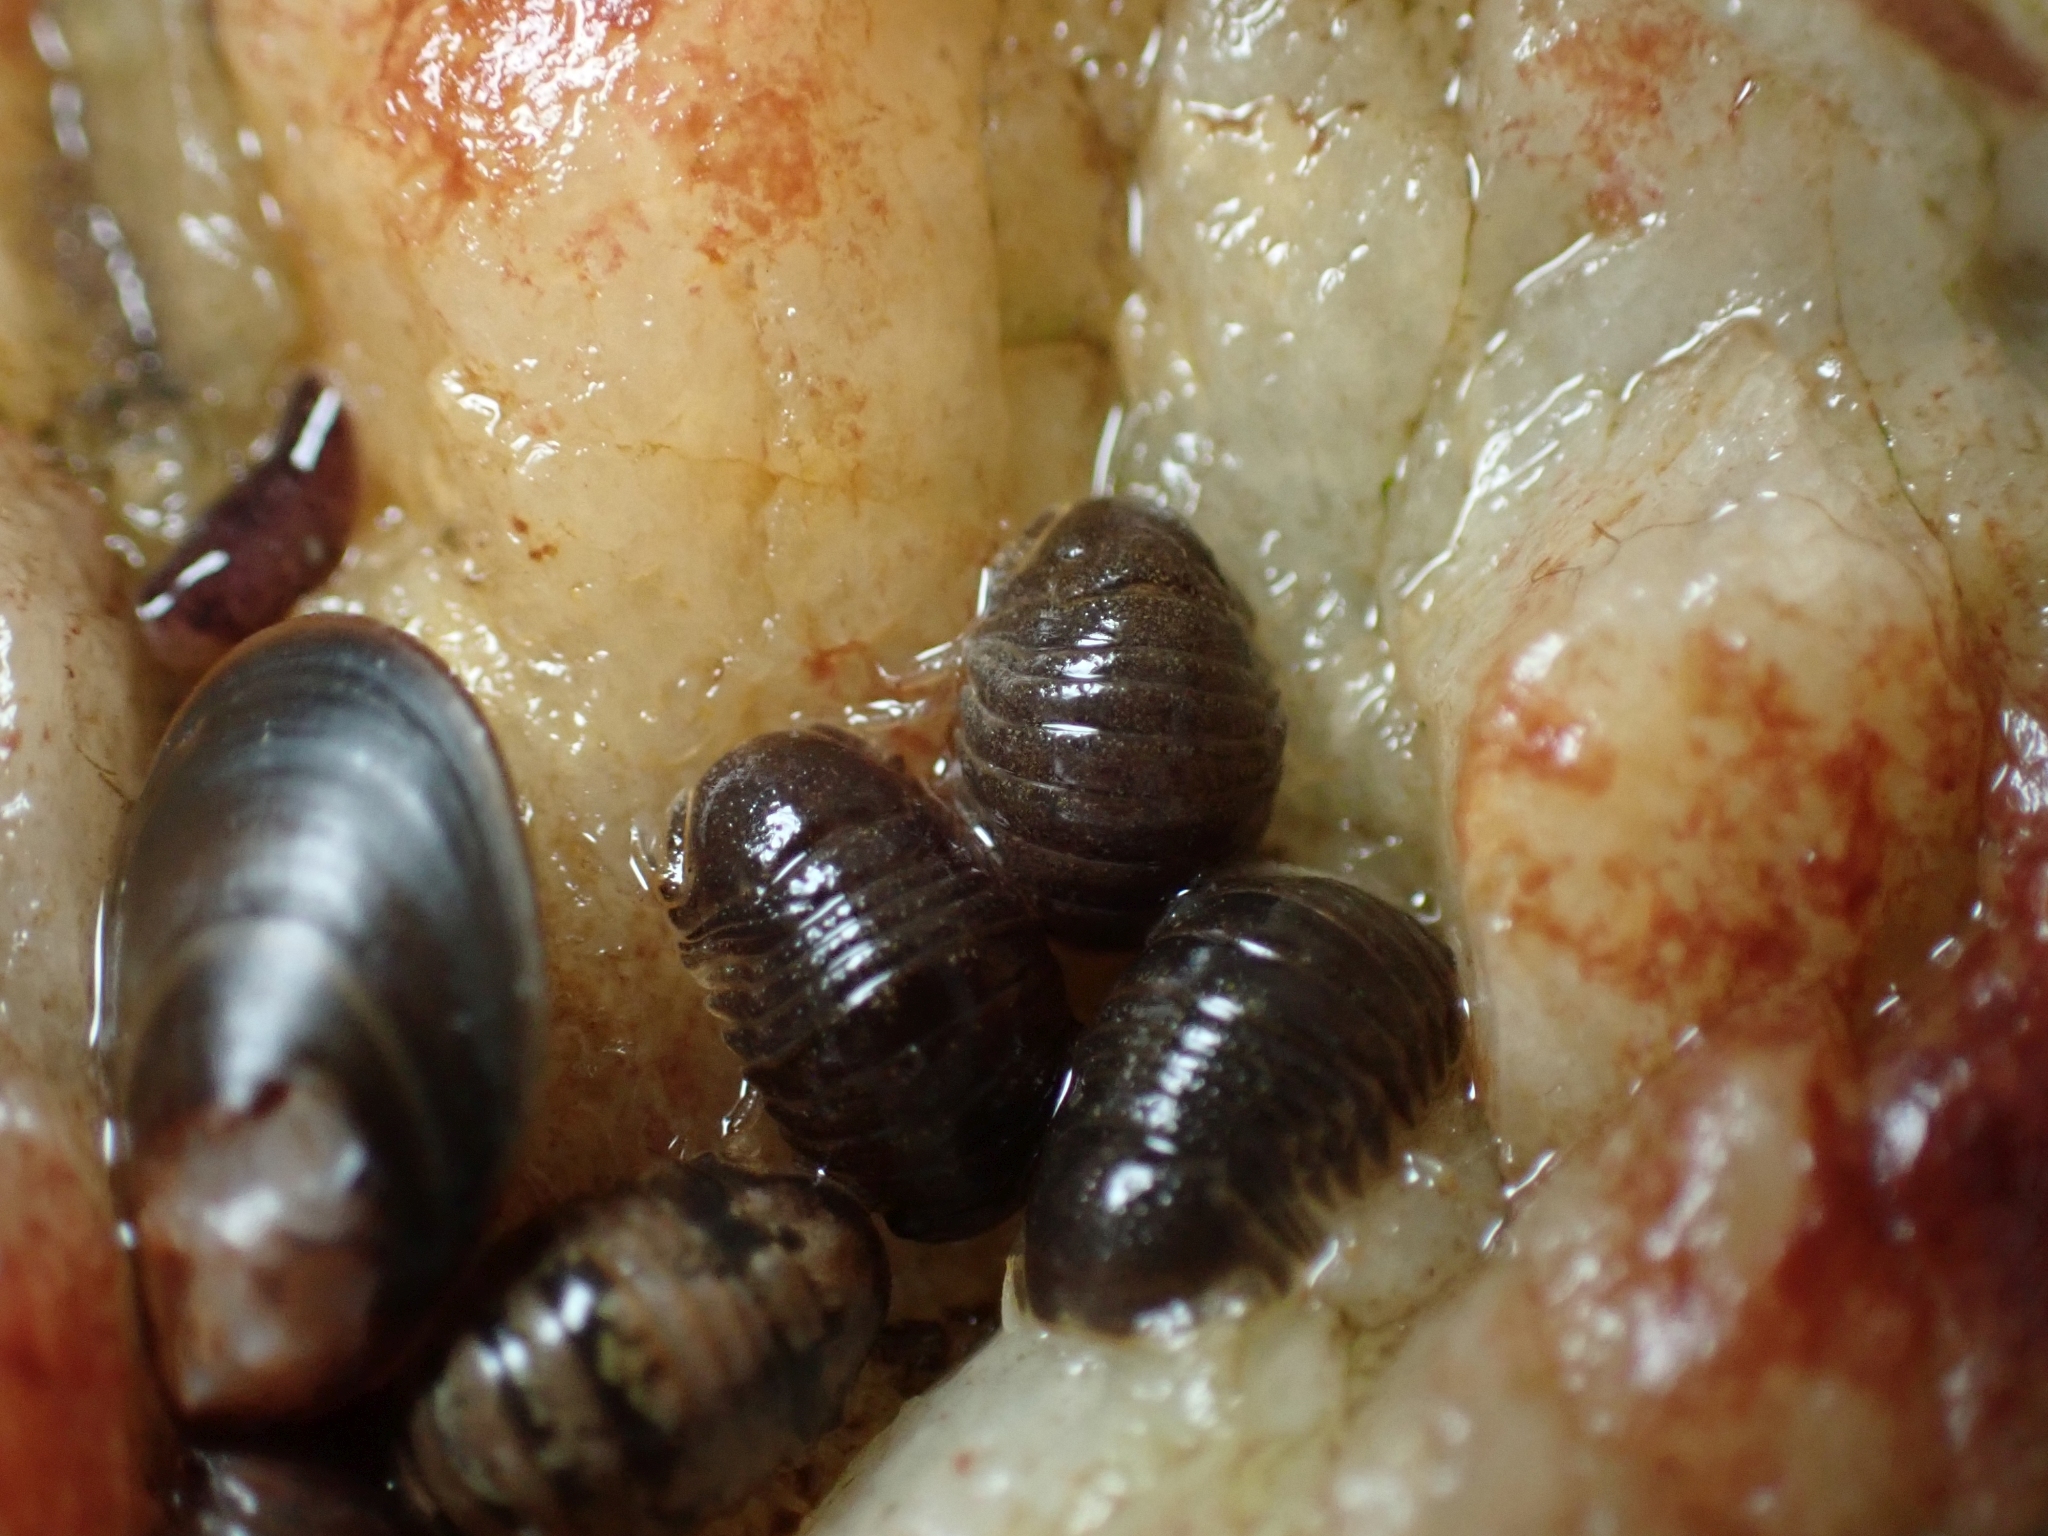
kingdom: Animalia
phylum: Arthropoda
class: Malacostraca
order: Isopoda
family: Sphaeromatidae
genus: Gnorimosphaeroma
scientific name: Gnorimosphaeroma oregonense
